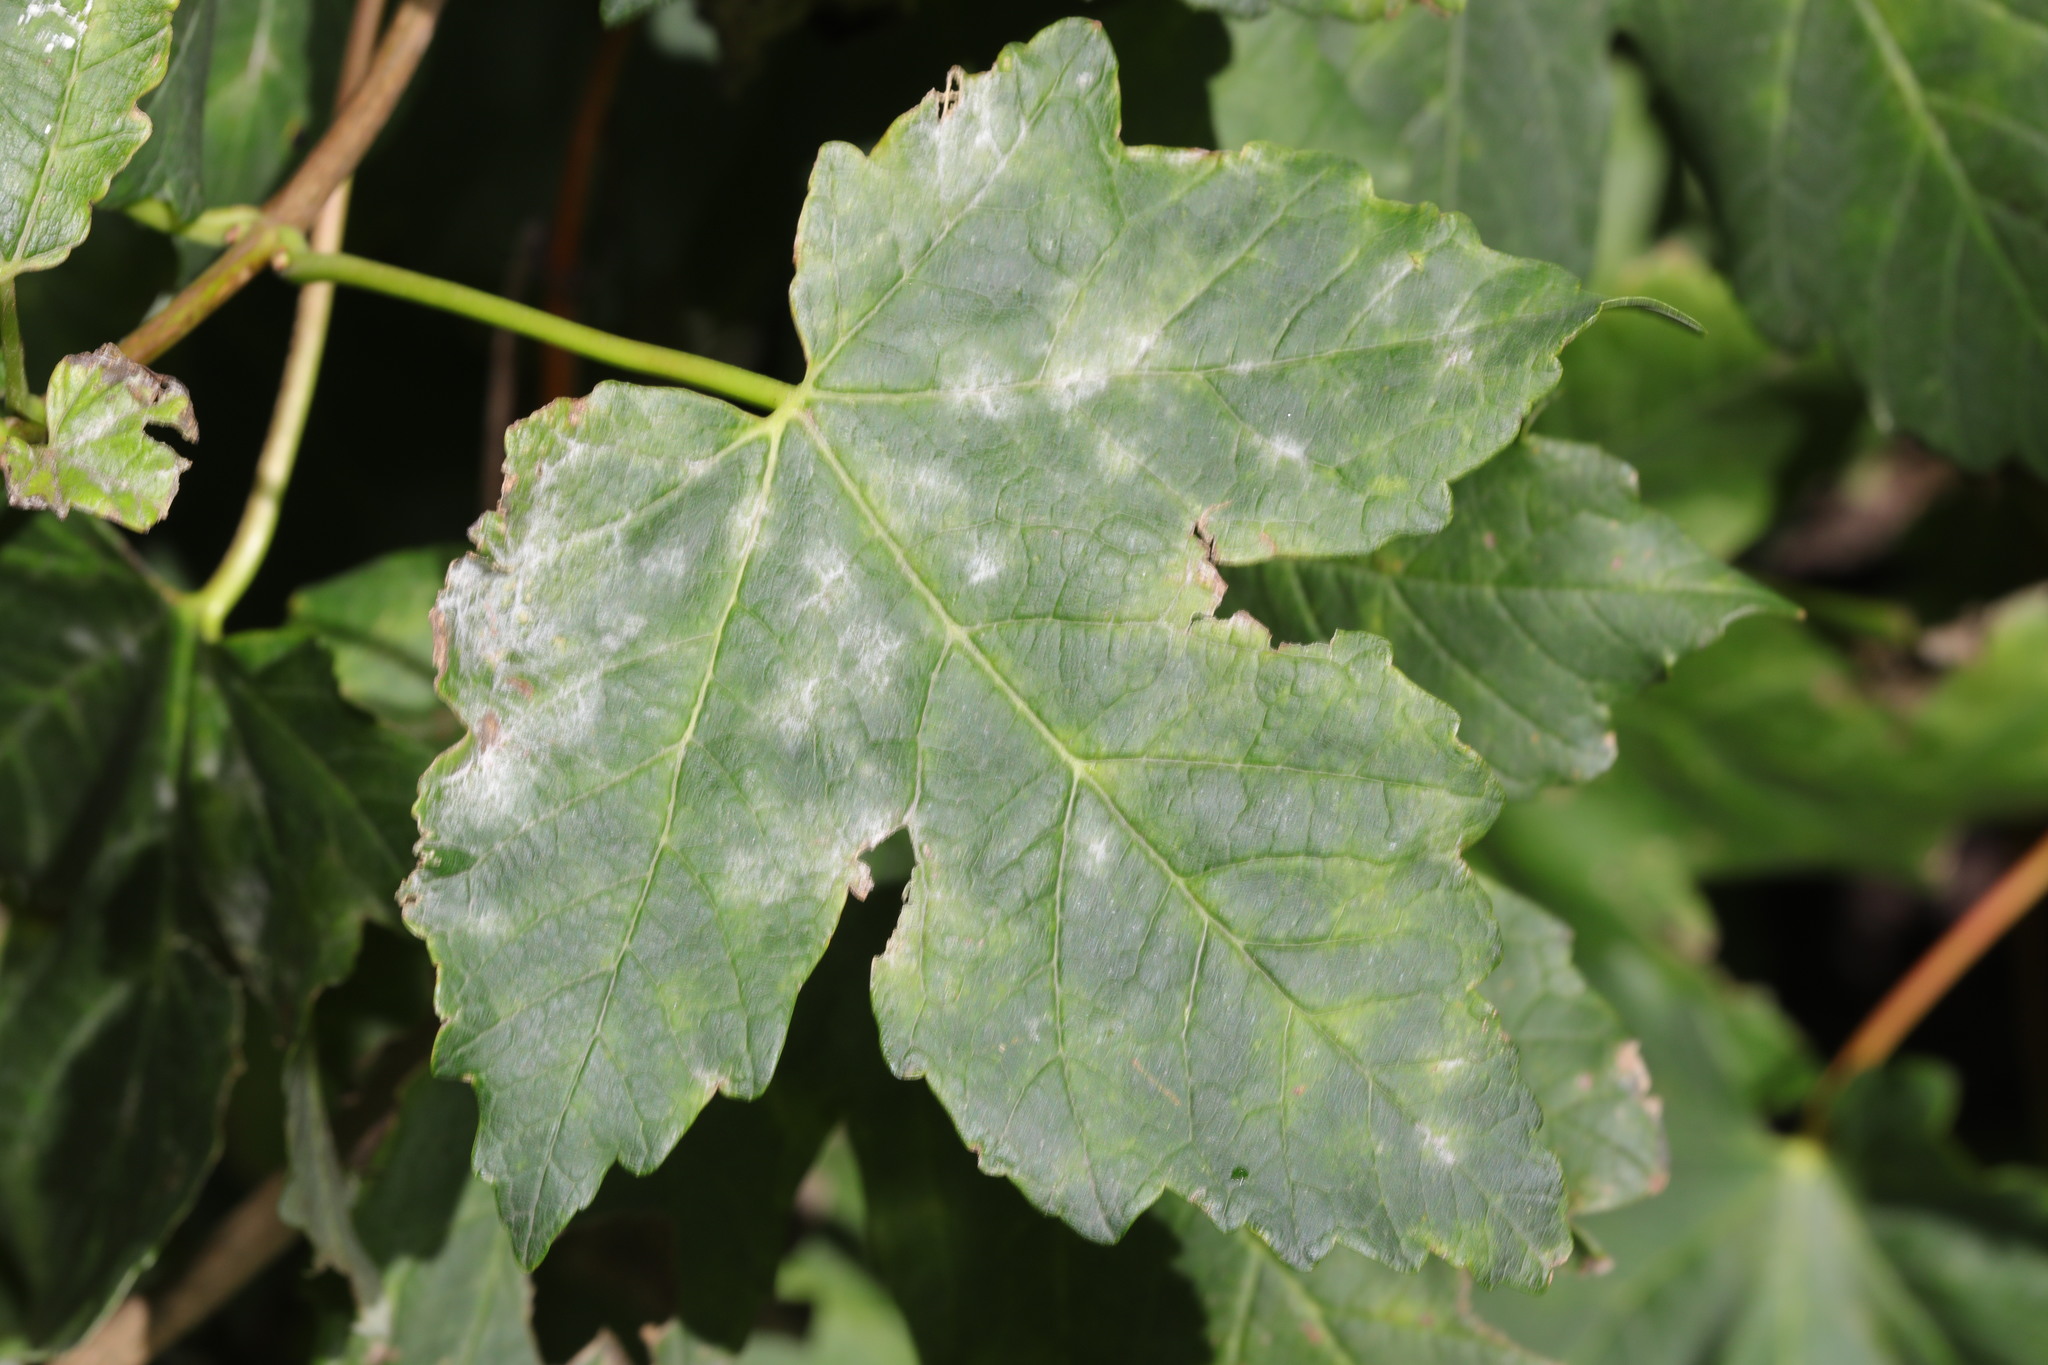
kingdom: Fungi
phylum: Ascomycota
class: Leotiomycetes
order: Helotiales
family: Erysiphaceae
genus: Sawadaea
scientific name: Sawadaea bicornis
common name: Maple mildew
